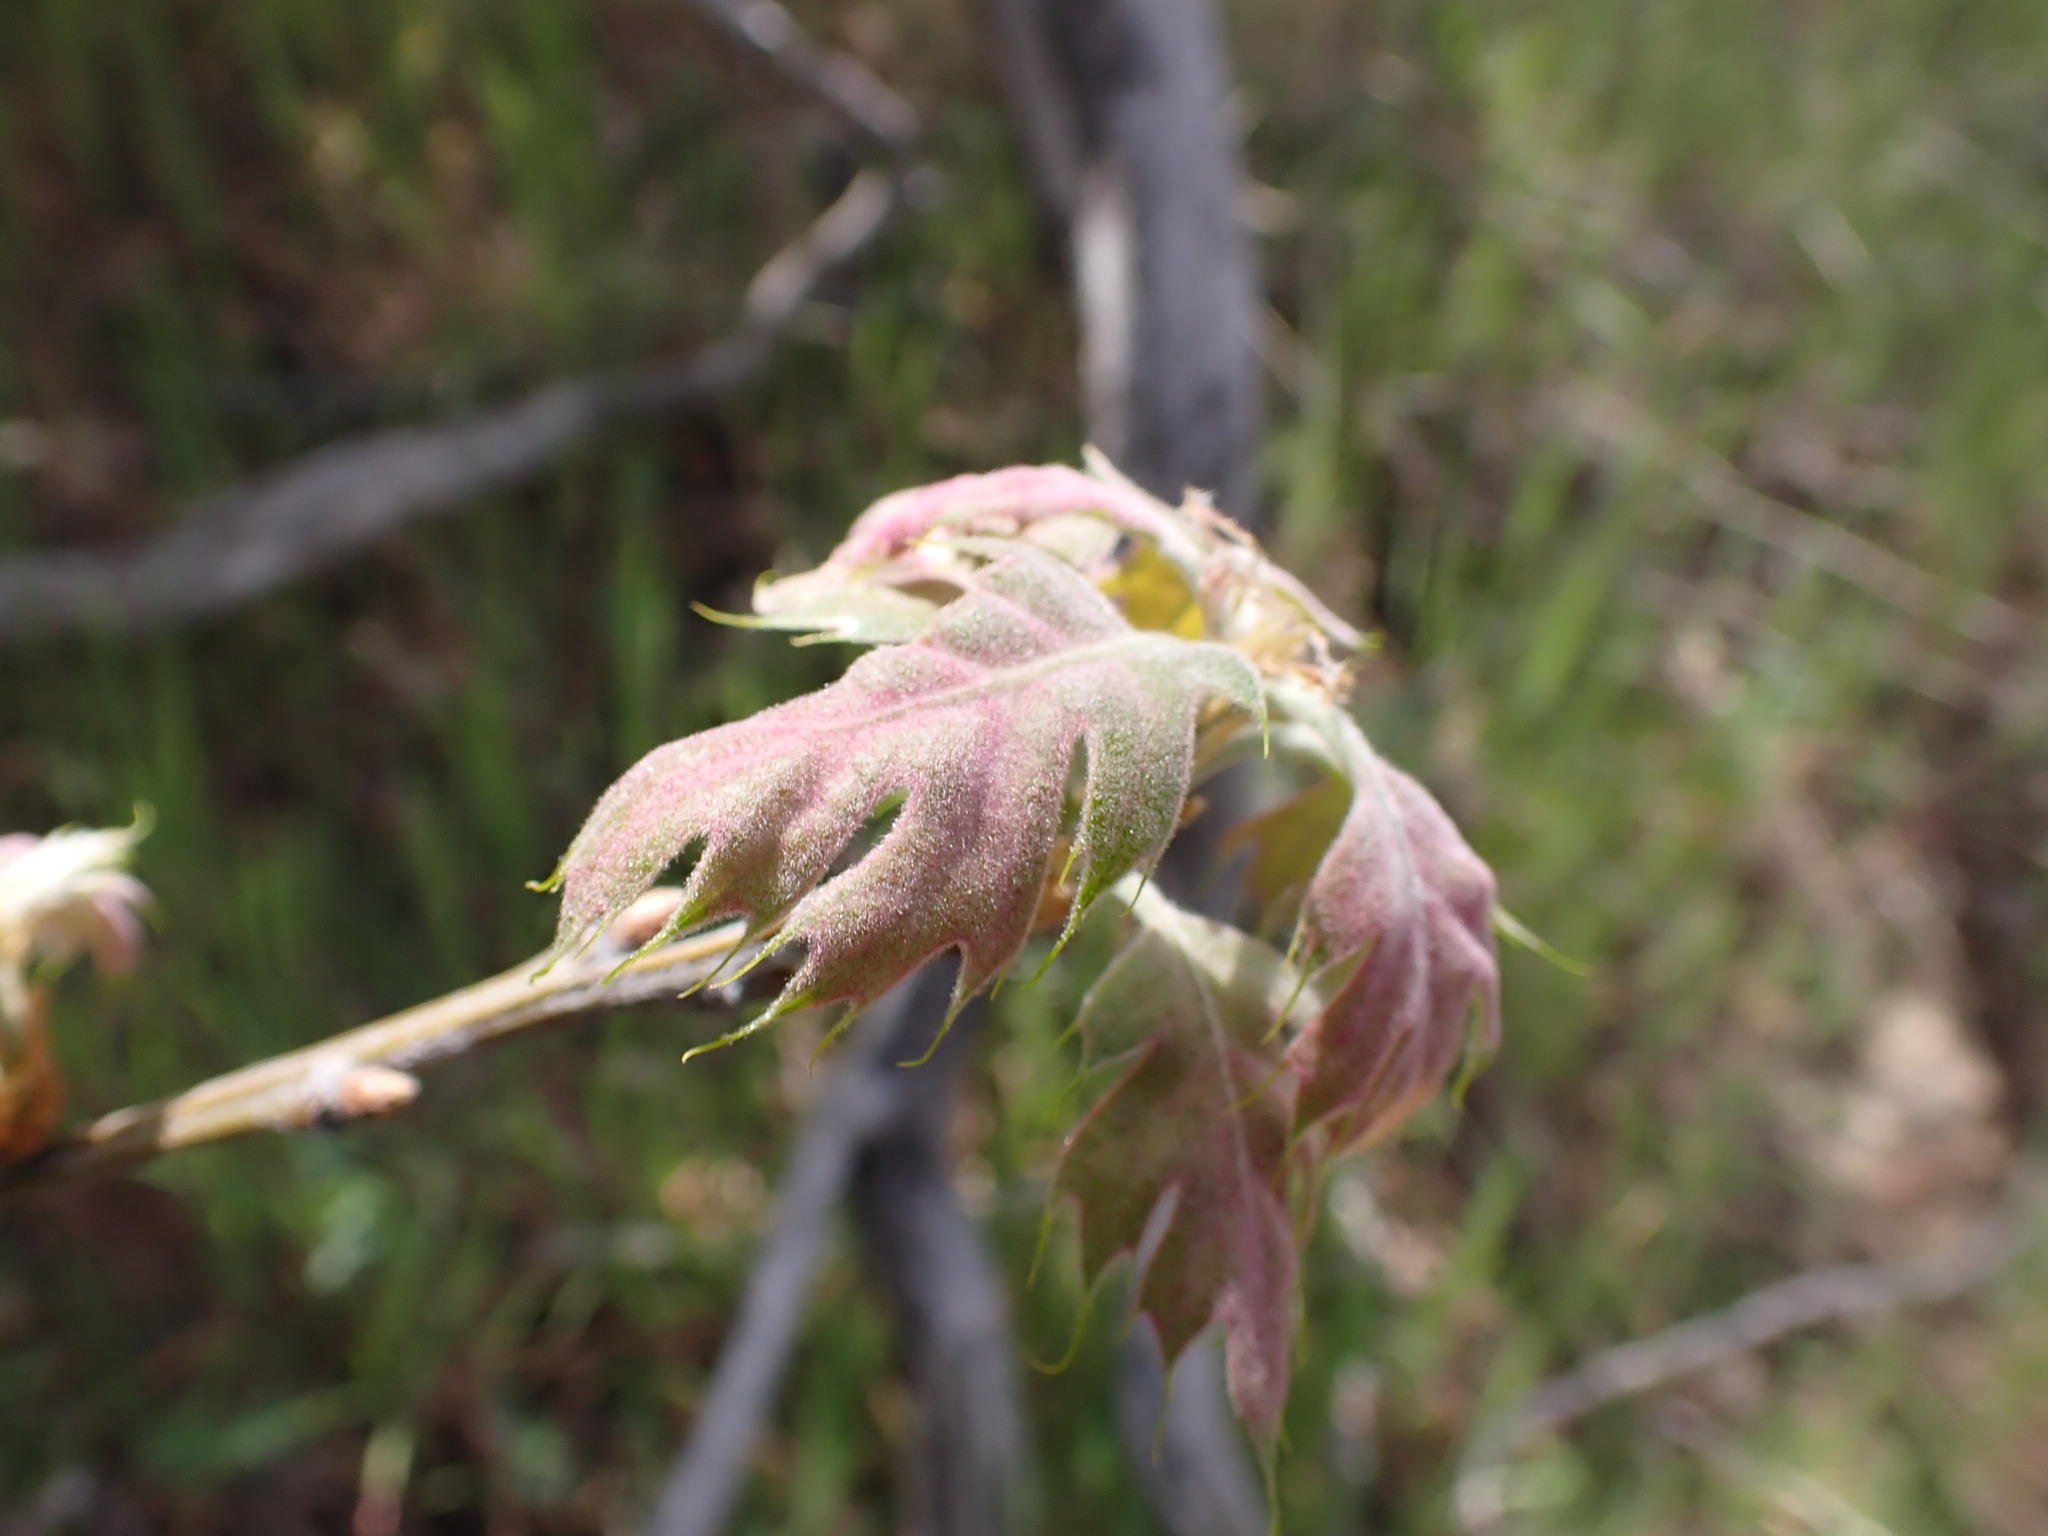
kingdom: Plantae
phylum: Tracheophyta
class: Magnoliopsida
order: Fagales
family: Fagaceae
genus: Quercus
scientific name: Quercus kelloggii
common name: California black oak
